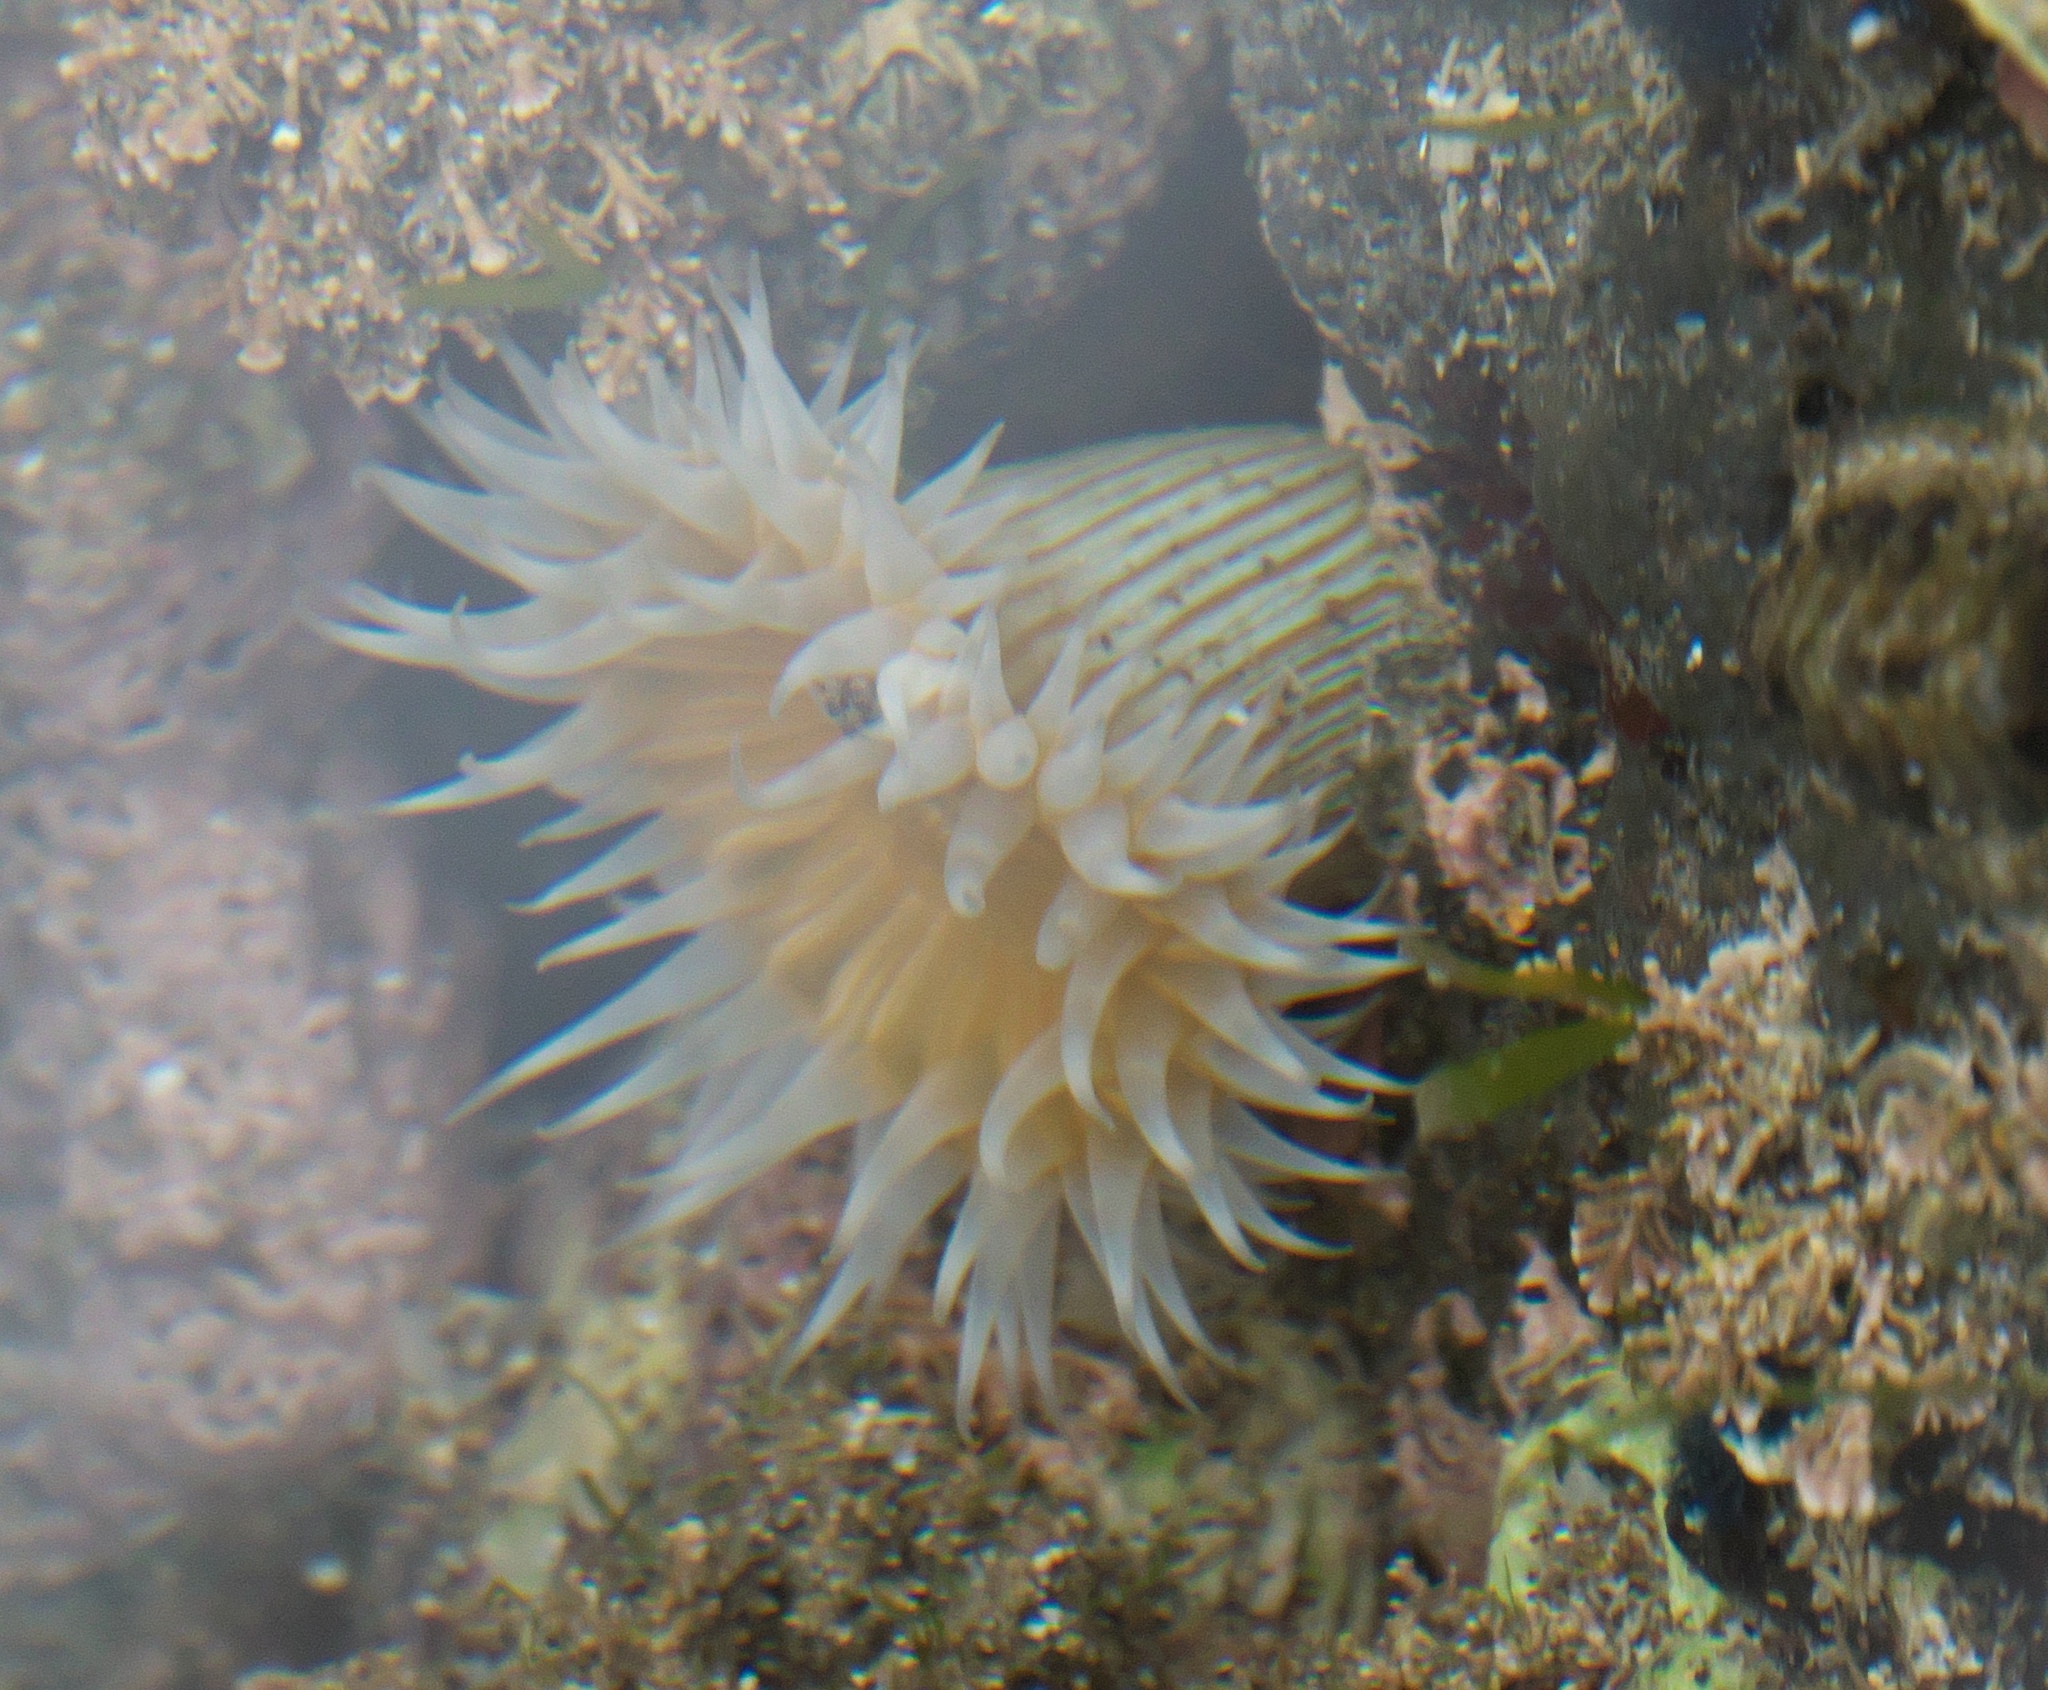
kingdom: Animalia
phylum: Cnidaria
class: Anthozoa
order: Actiniaria
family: Sagartiidae
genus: Anthothoe
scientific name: Anthothoe albocincta
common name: Orange striped anemone
